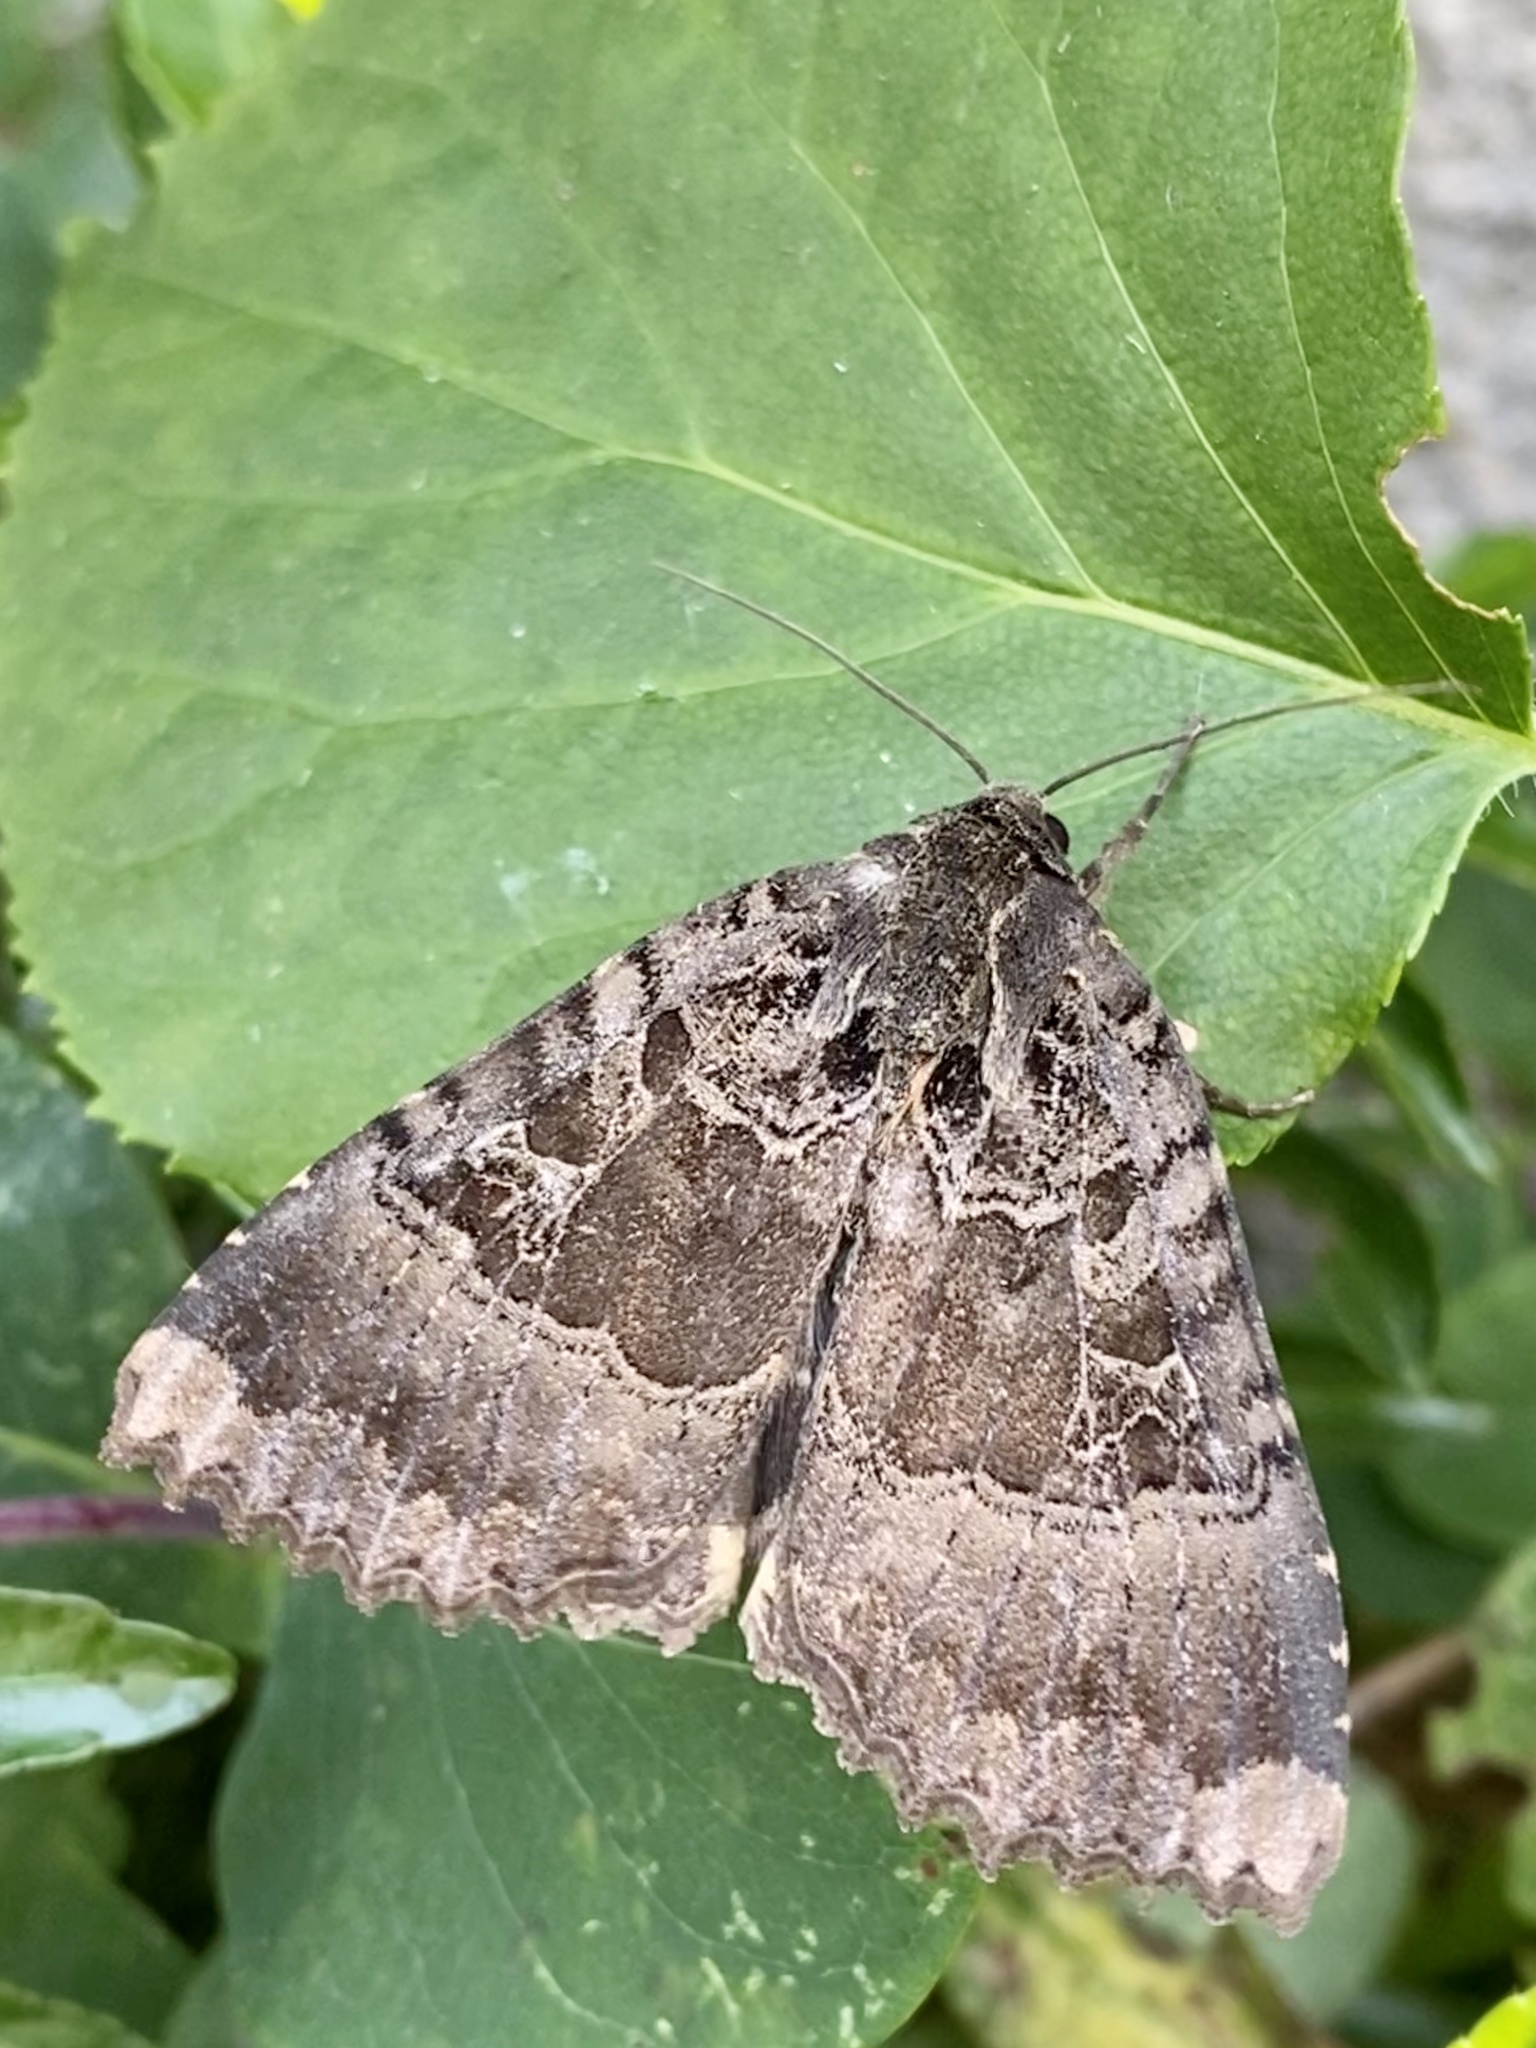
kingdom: Animalia
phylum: Arthropoda
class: Insecta
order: Lepidoptera
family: Noctuidae
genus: Mormo
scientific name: Mormo maura
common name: Old lady
